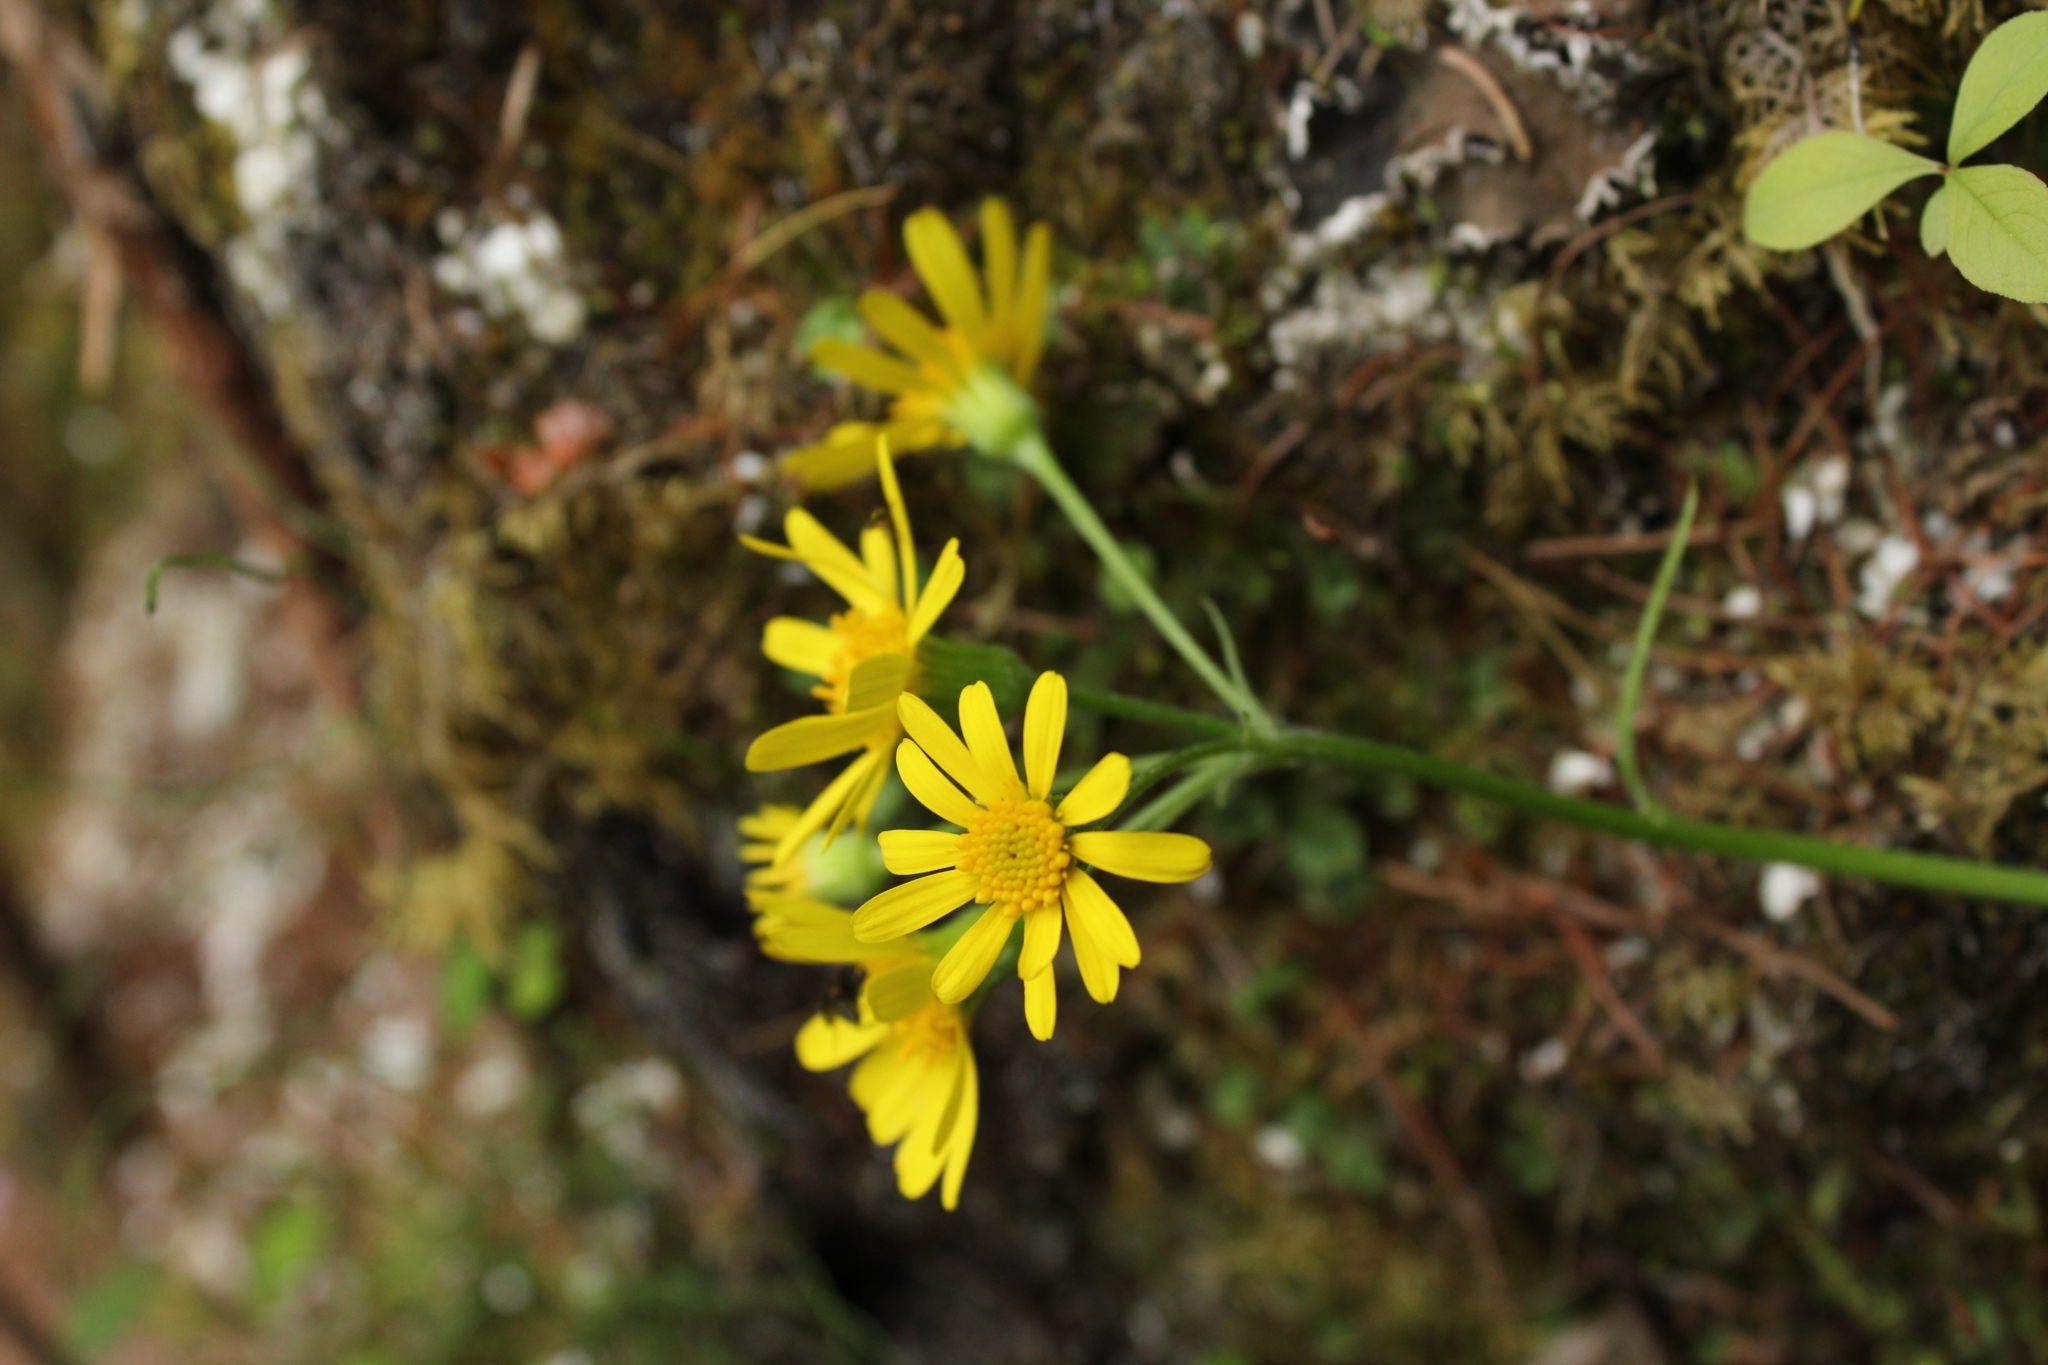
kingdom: Plantae
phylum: Tracheophyta
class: Magnoliopsida
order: Asterales
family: Asteraceae
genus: Tephroseris
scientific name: Tephroseris integrifolia
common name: Field fleawort
